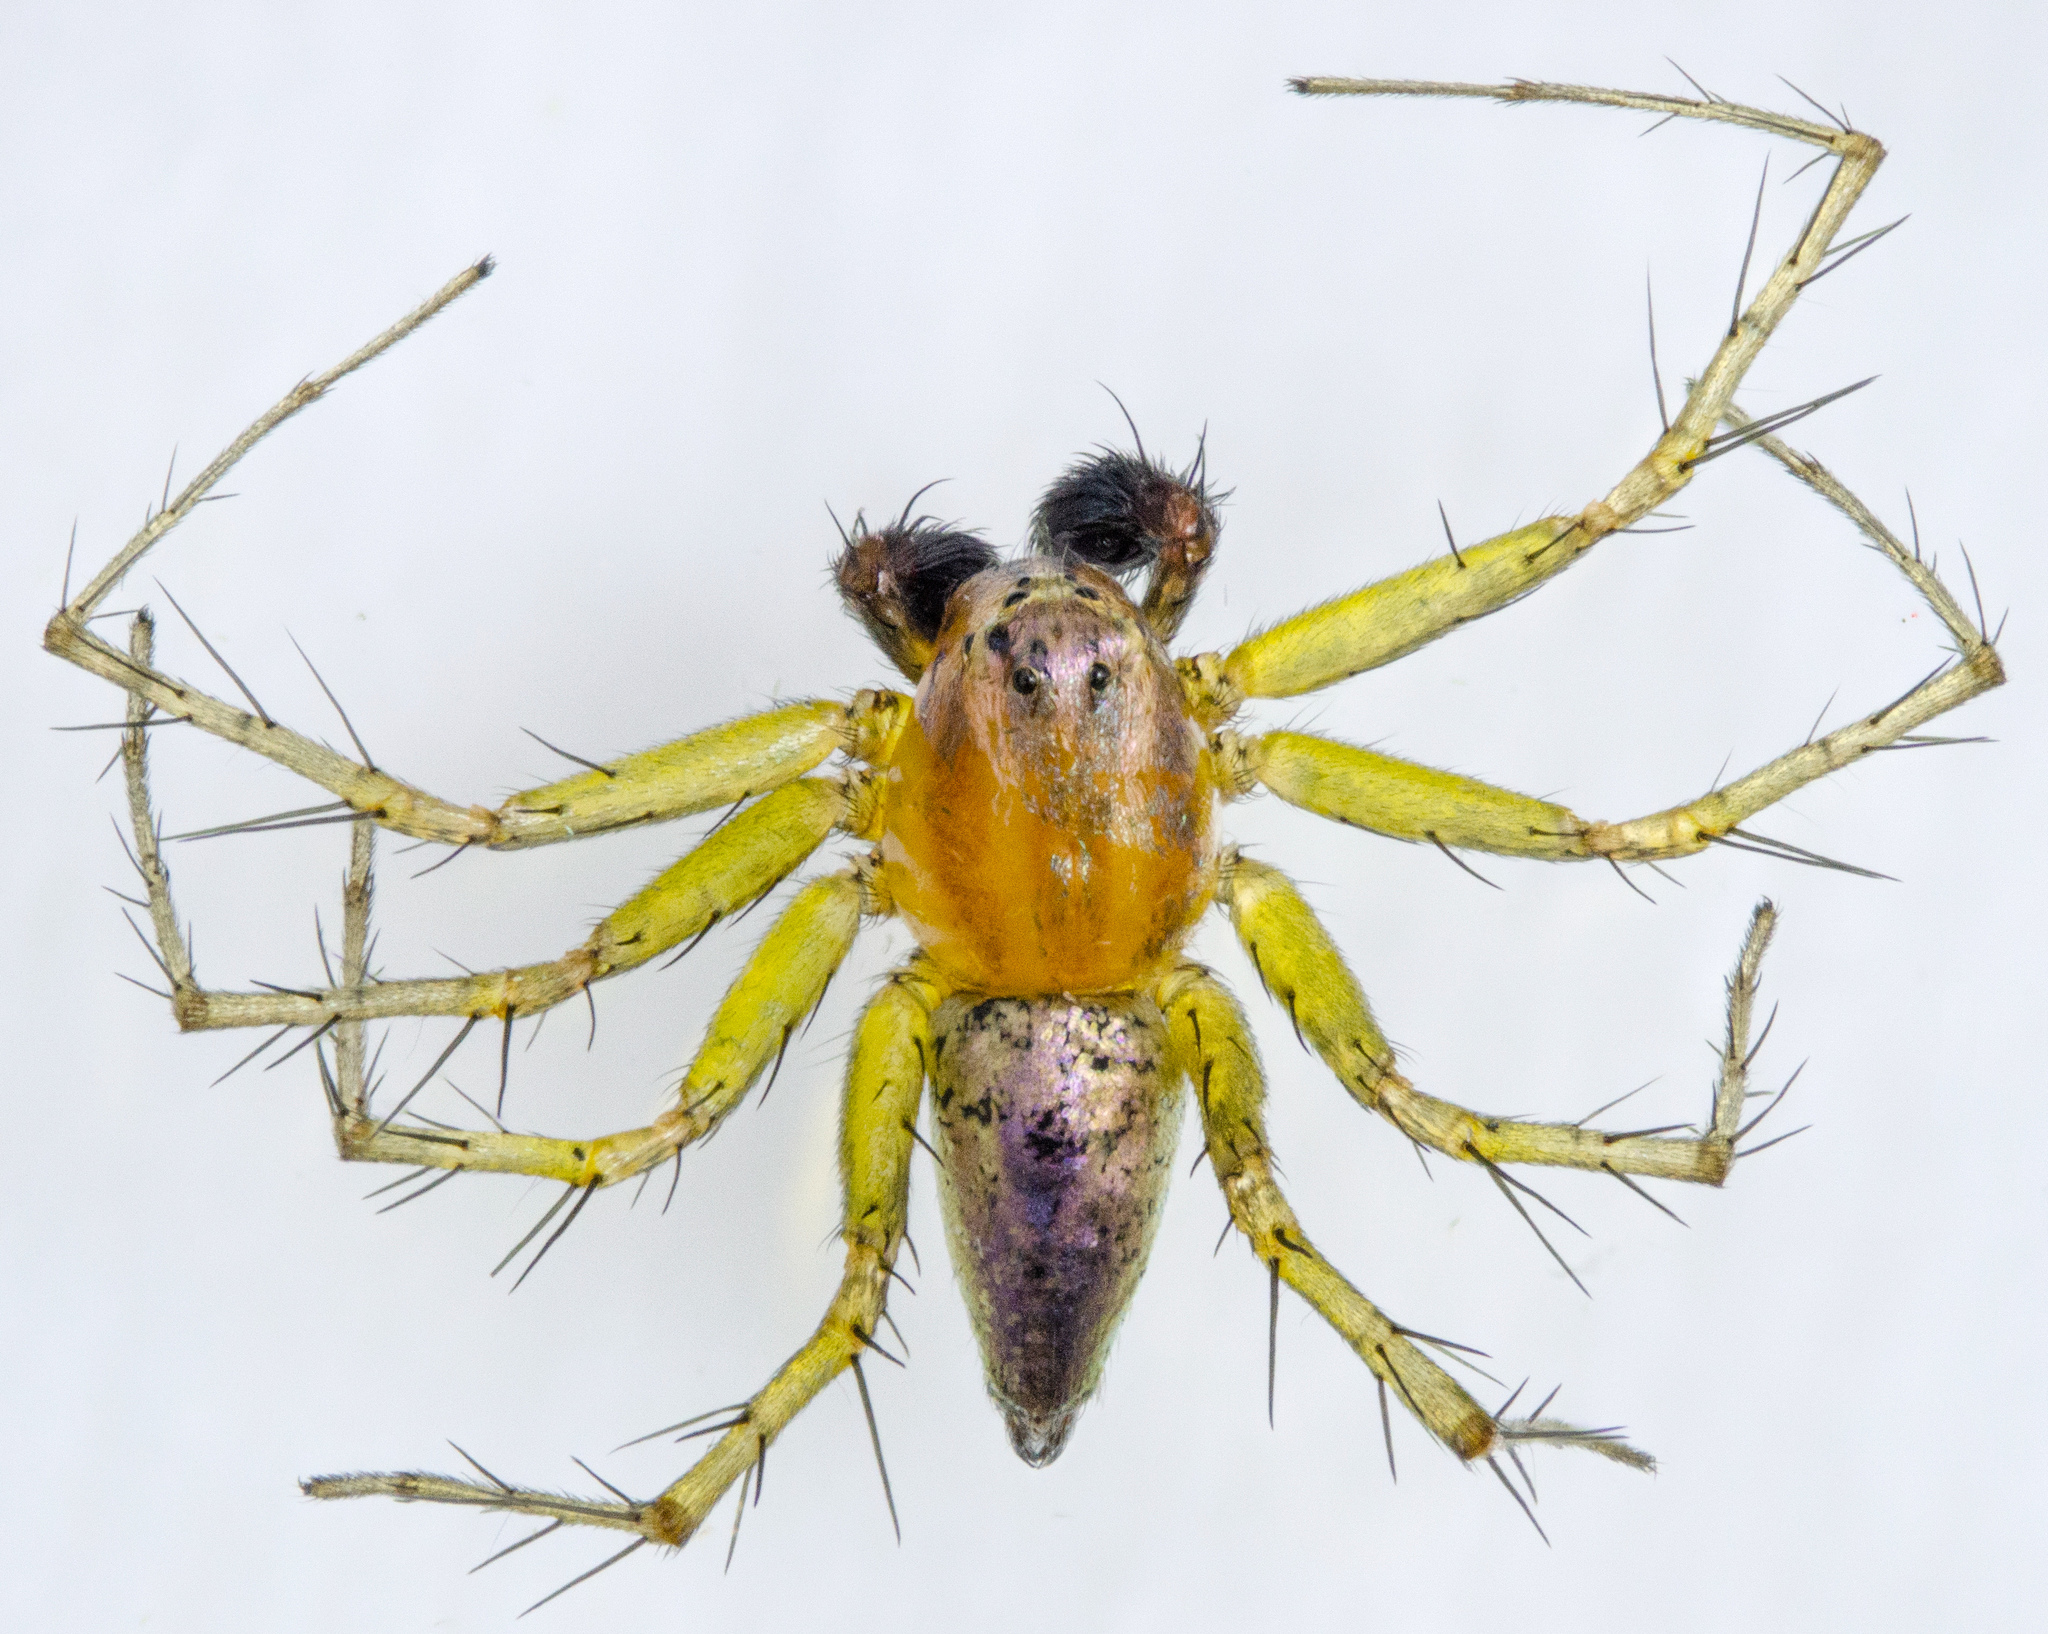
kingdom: Animalia
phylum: Arthropoda
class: Arachnida
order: Araneae
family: Oxyopidae
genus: Oxyopes
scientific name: Oxyopes salticus
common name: Lynx spiders
